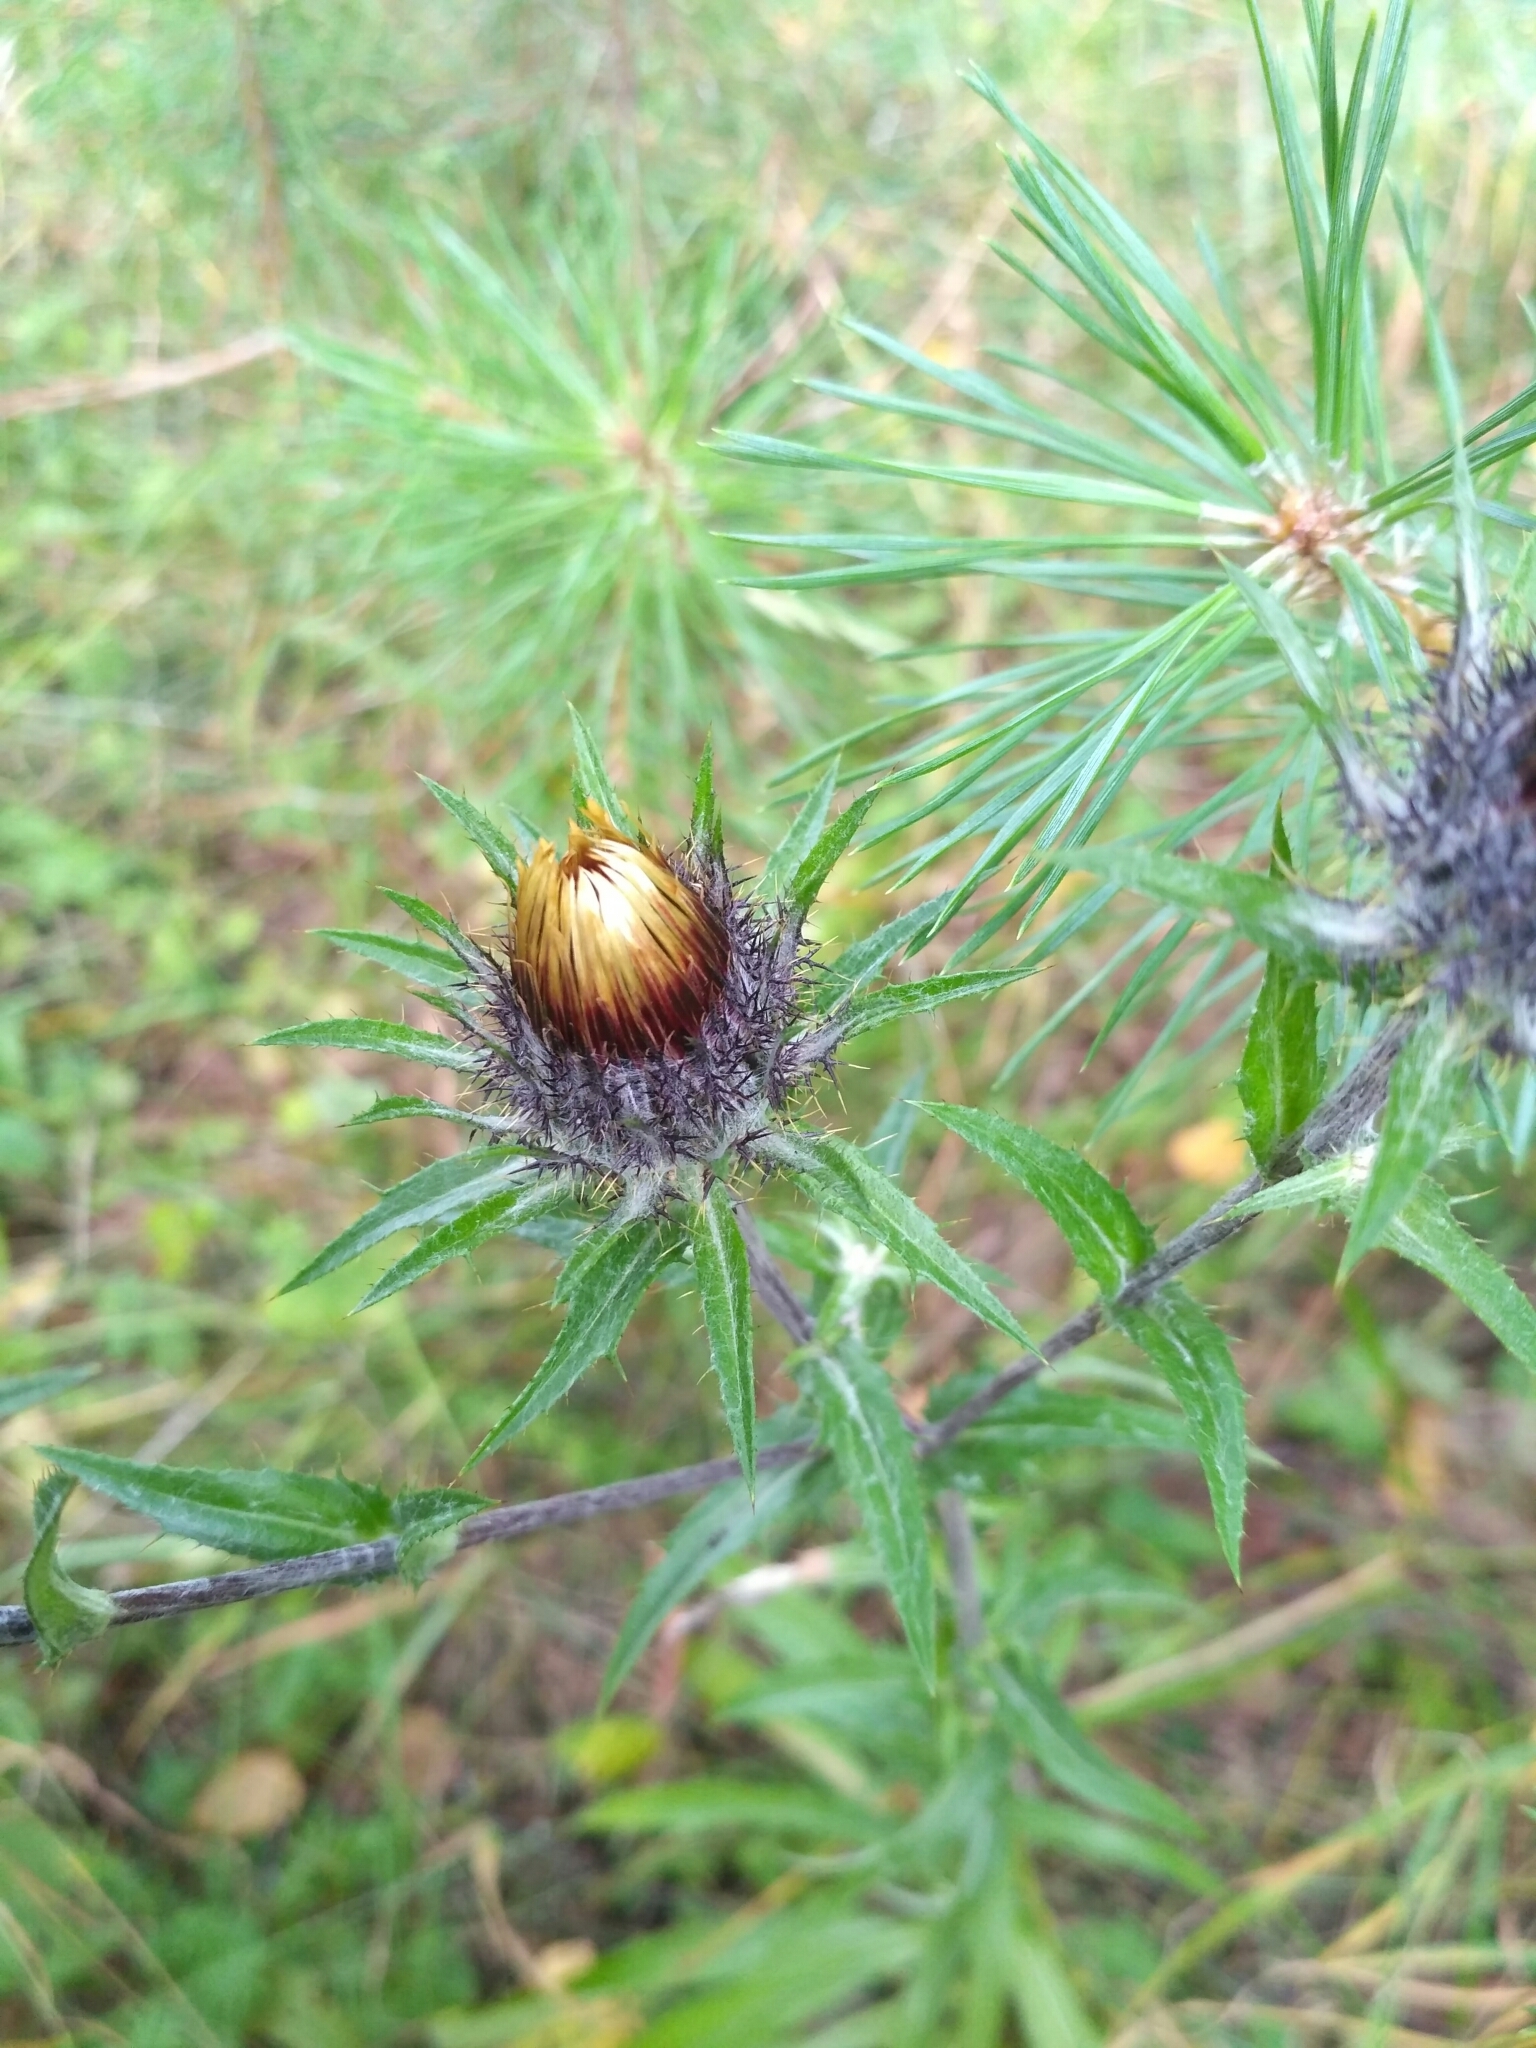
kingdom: Plantae
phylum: Tracheophyta
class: Magnoliopsida
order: Asterales
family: Asteraceae
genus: Carlina
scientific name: Carlina biebersteinii
